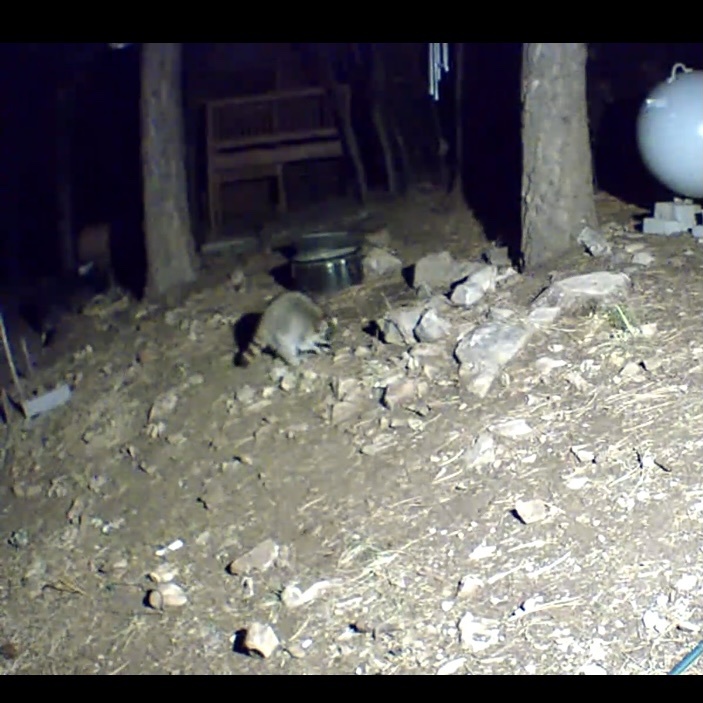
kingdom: Animalia
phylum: Chordata
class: Mammalia
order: Carnivora
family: Procyonidae
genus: Procyon
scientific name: Procyon lotor
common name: Raccoon
